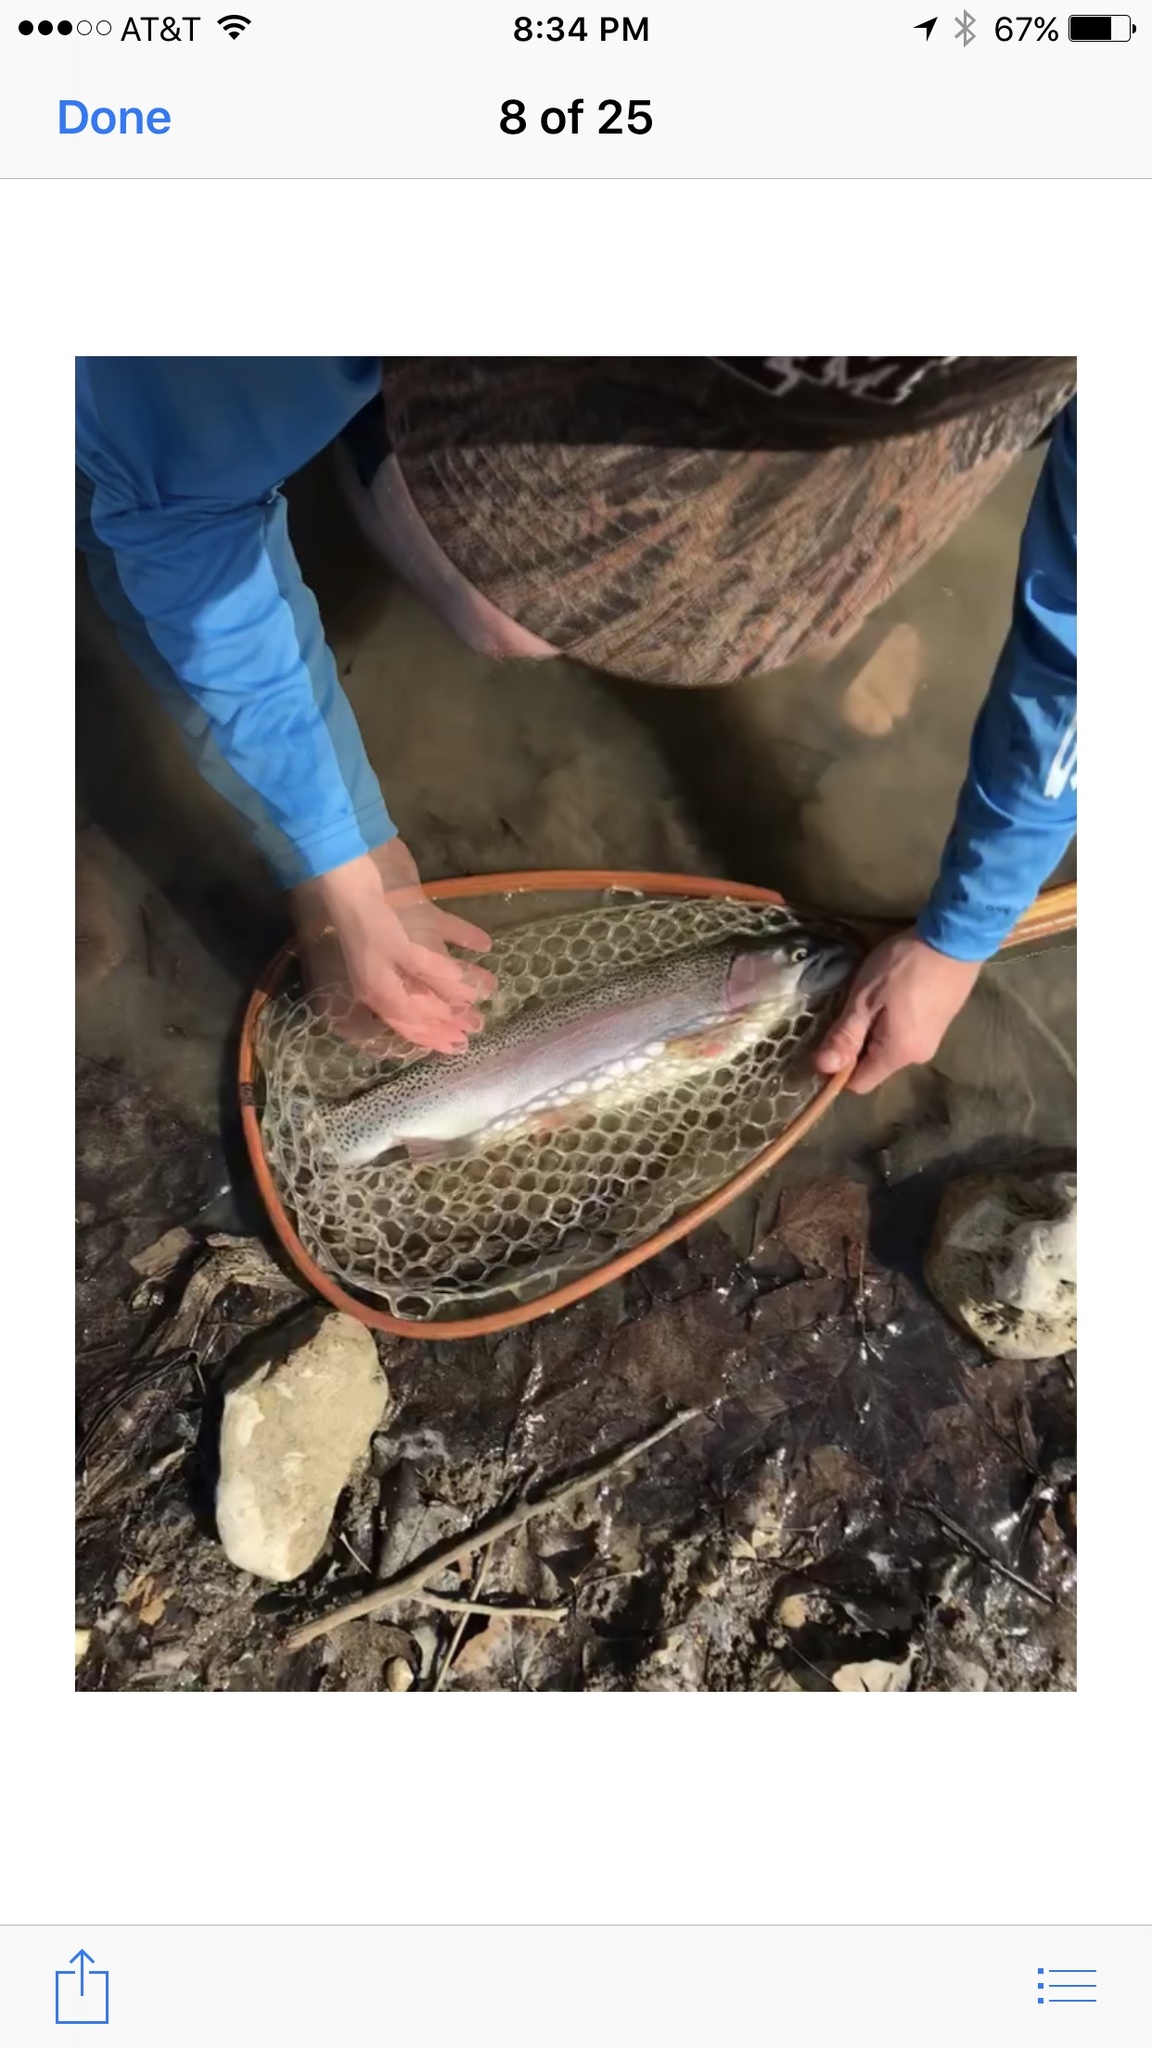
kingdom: Animalia
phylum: Chordata
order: Salmoniformes
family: Salmonidae
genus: Oncorhynchus
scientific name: Oncorhynchus mykiss
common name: Rainbow trout
